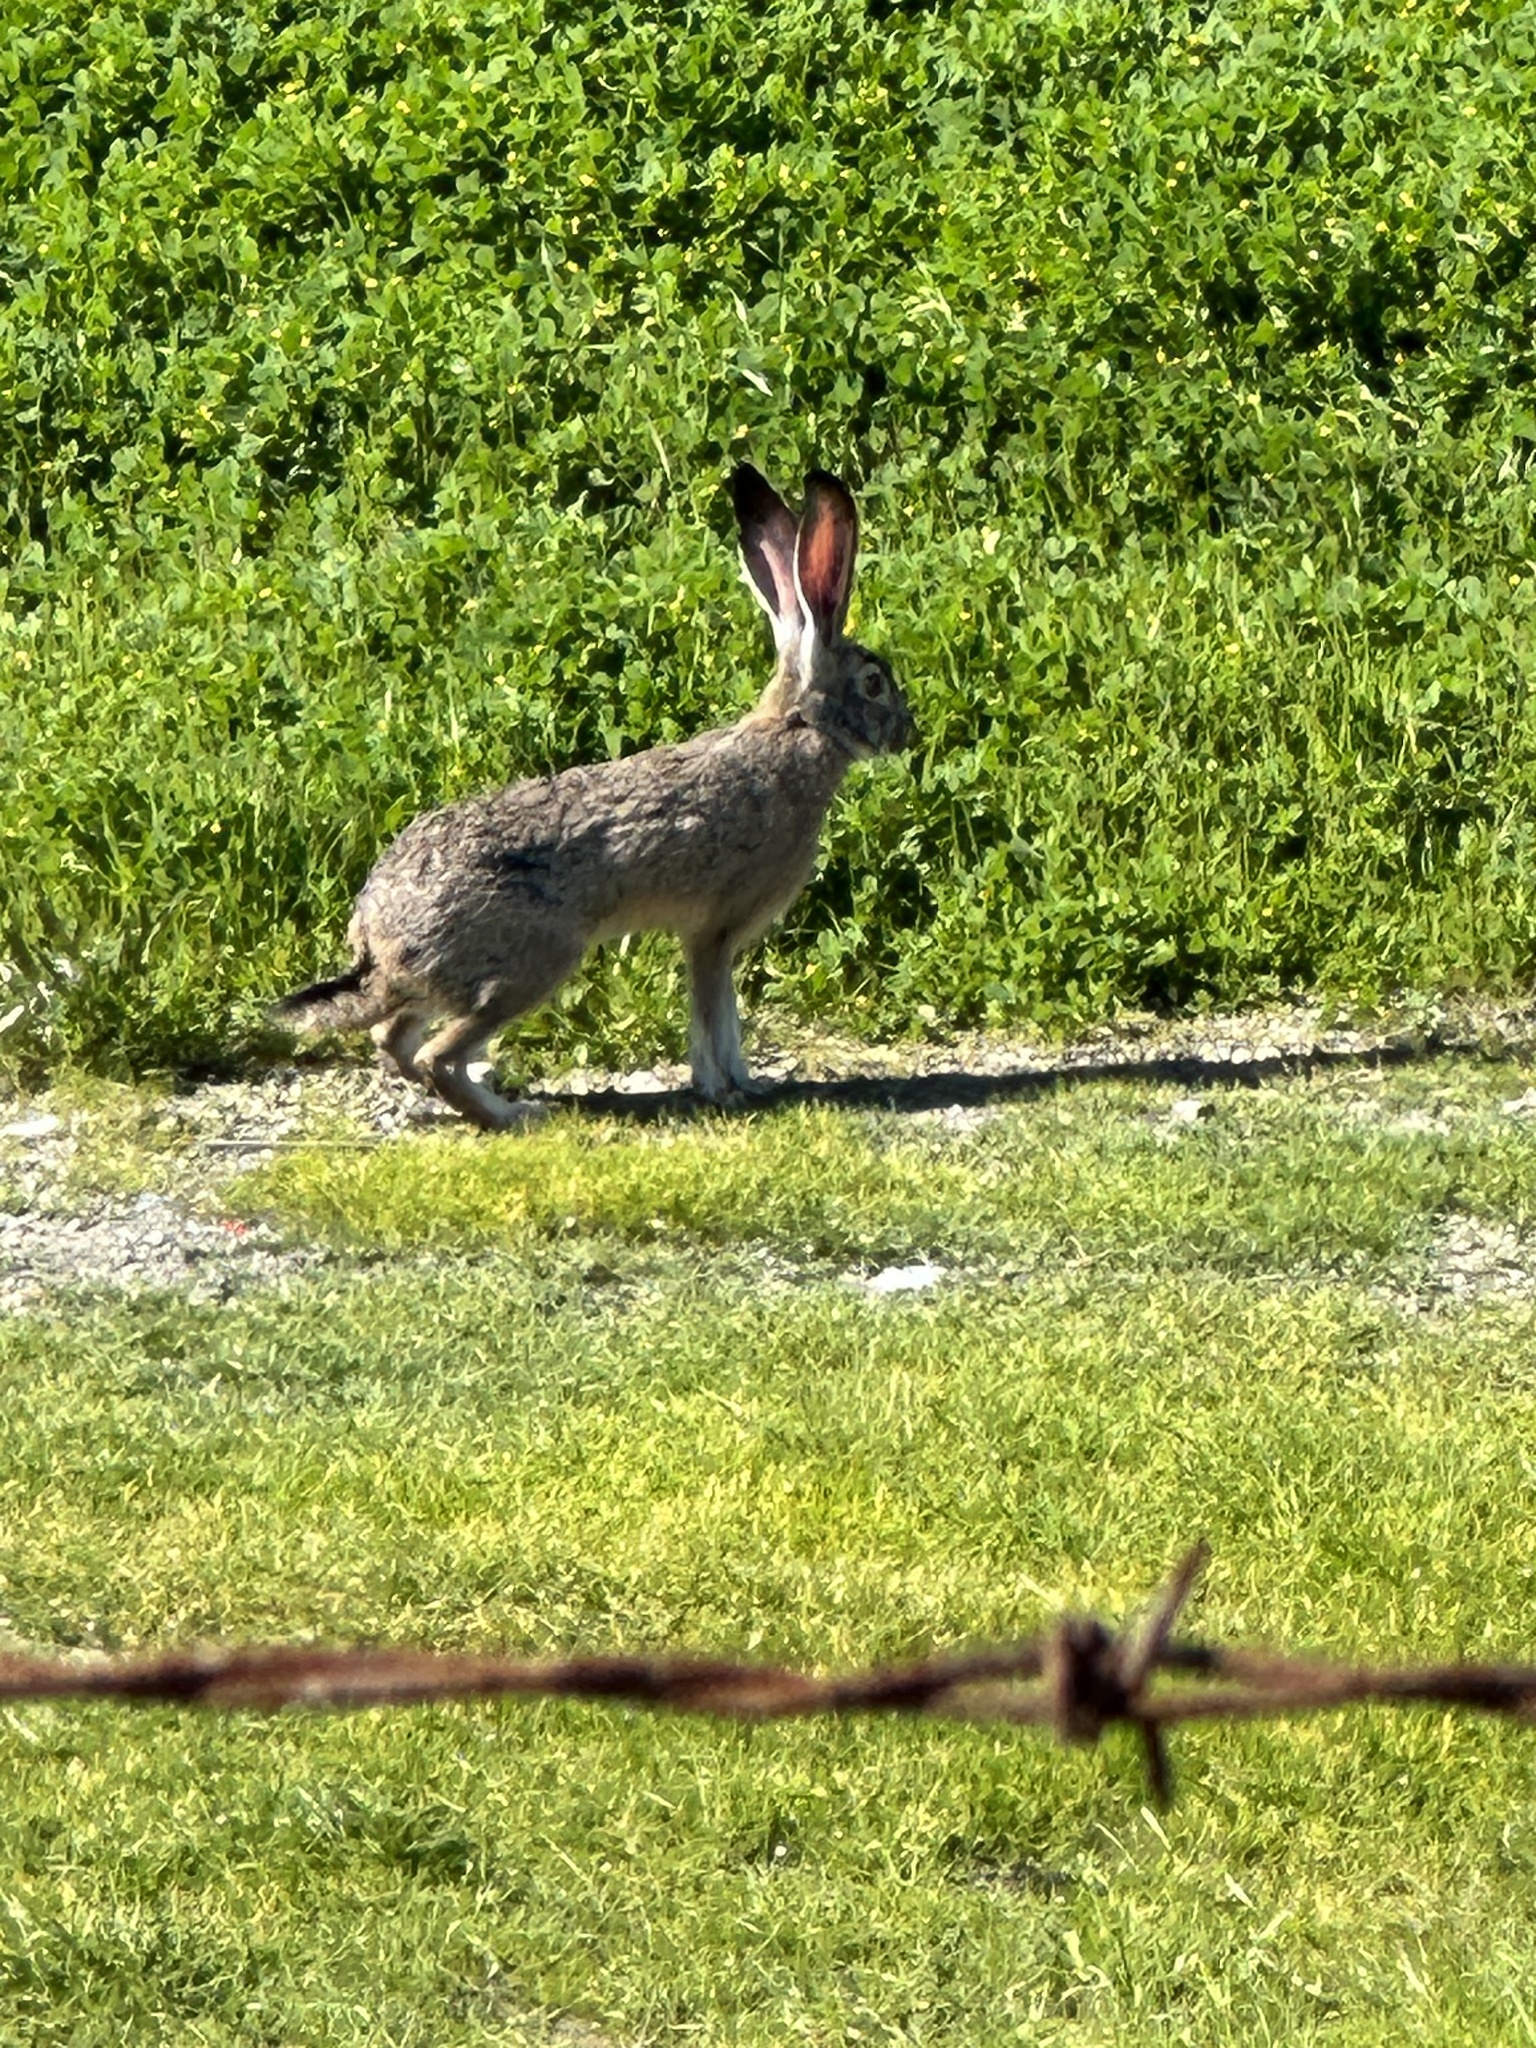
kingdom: Animalia
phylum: Chordata
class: Mammalia
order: Lagomorpha
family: Leporidae
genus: Lepus
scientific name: Lepus californicus
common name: Black-tailed jackrabbit
